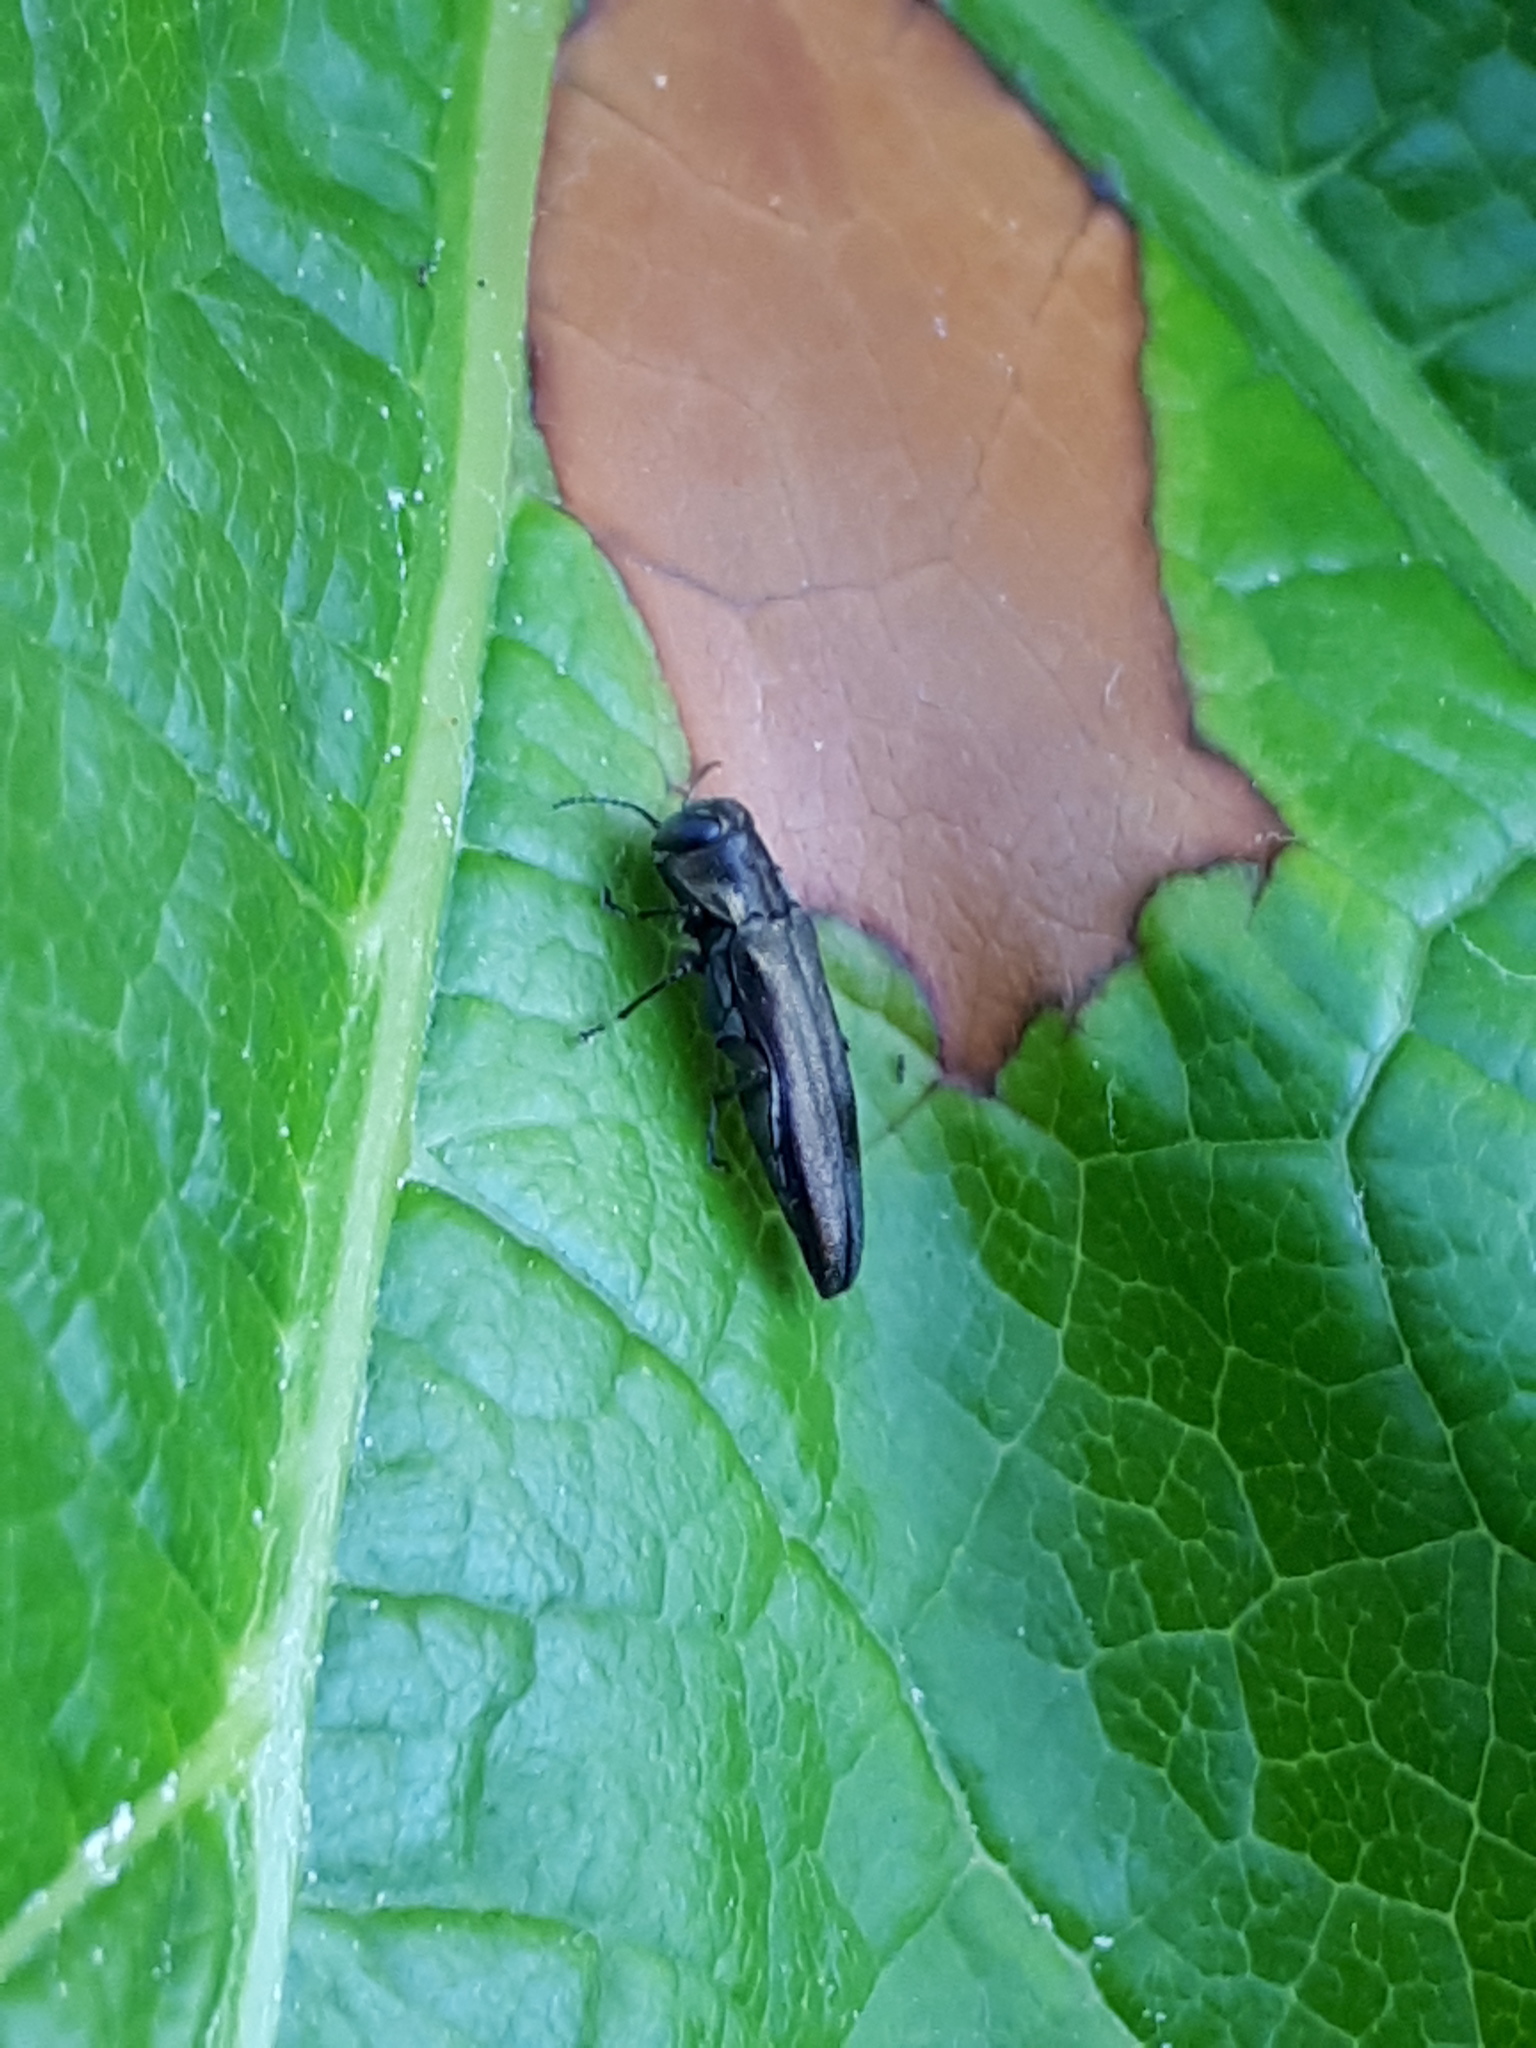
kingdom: Animalia
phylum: Arthropoda
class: Insecta
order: Coleoptera
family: Buprestidae
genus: Agrilus
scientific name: Agrilus derasofasciatus
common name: Metallic wood-boring beetle
